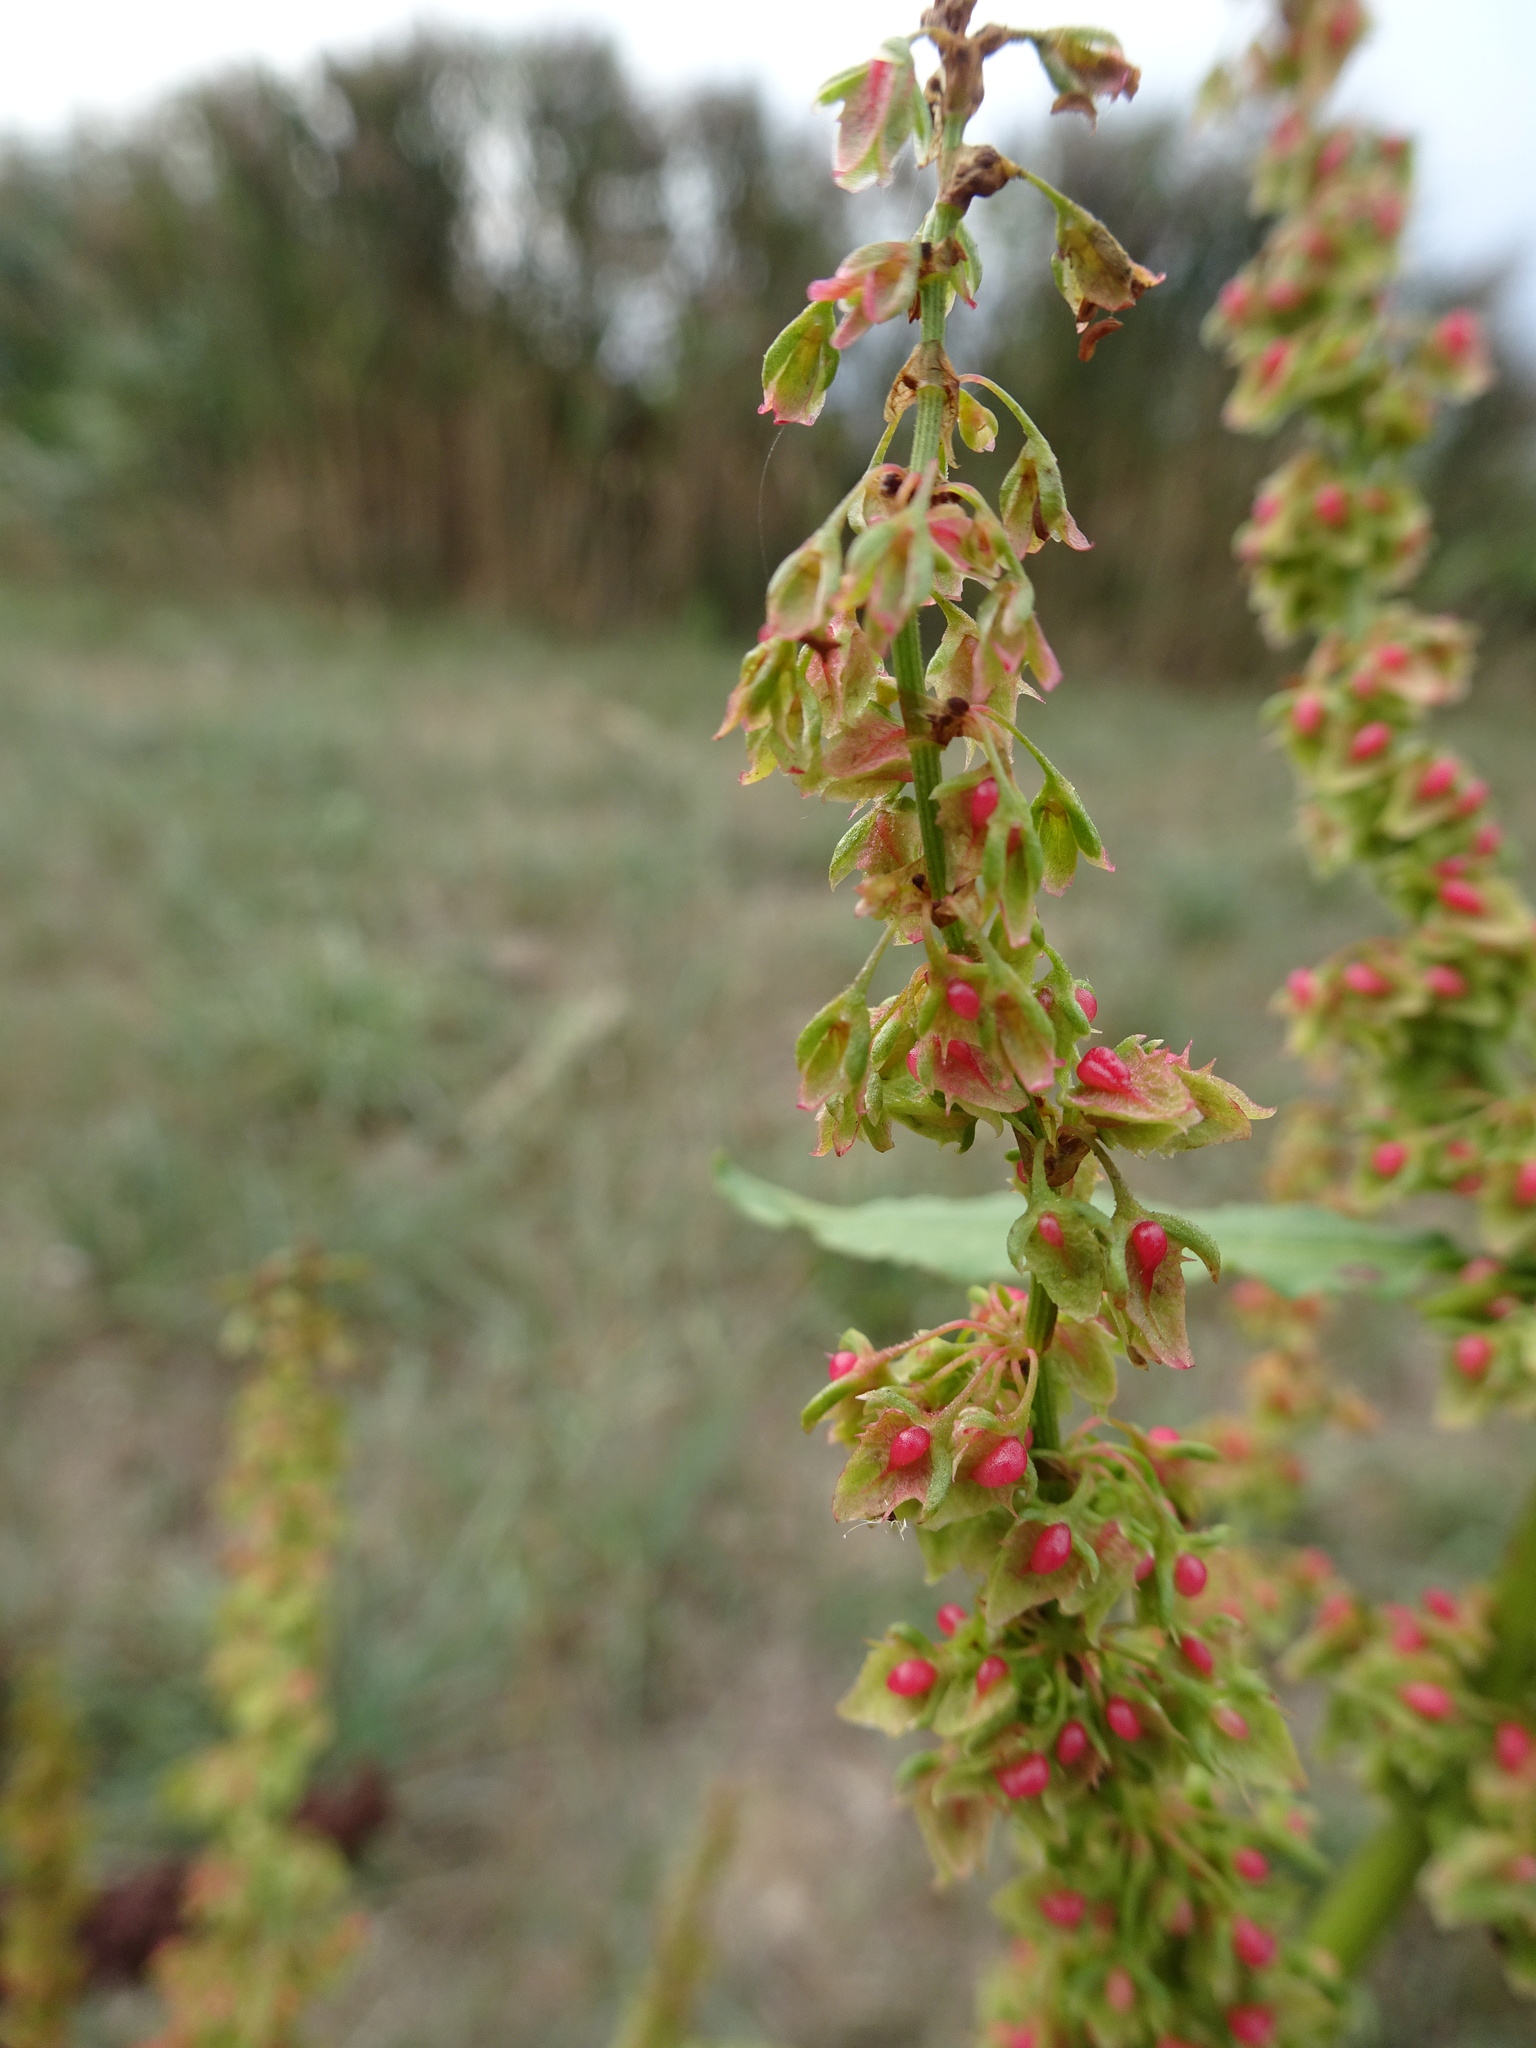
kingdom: Plantae
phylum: Tracheophyta
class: Magnoliopsida
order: Caryophyllales
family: Polygonaceae
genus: Rumex
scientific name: Rumex obtusifolius
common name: Bitter dock
